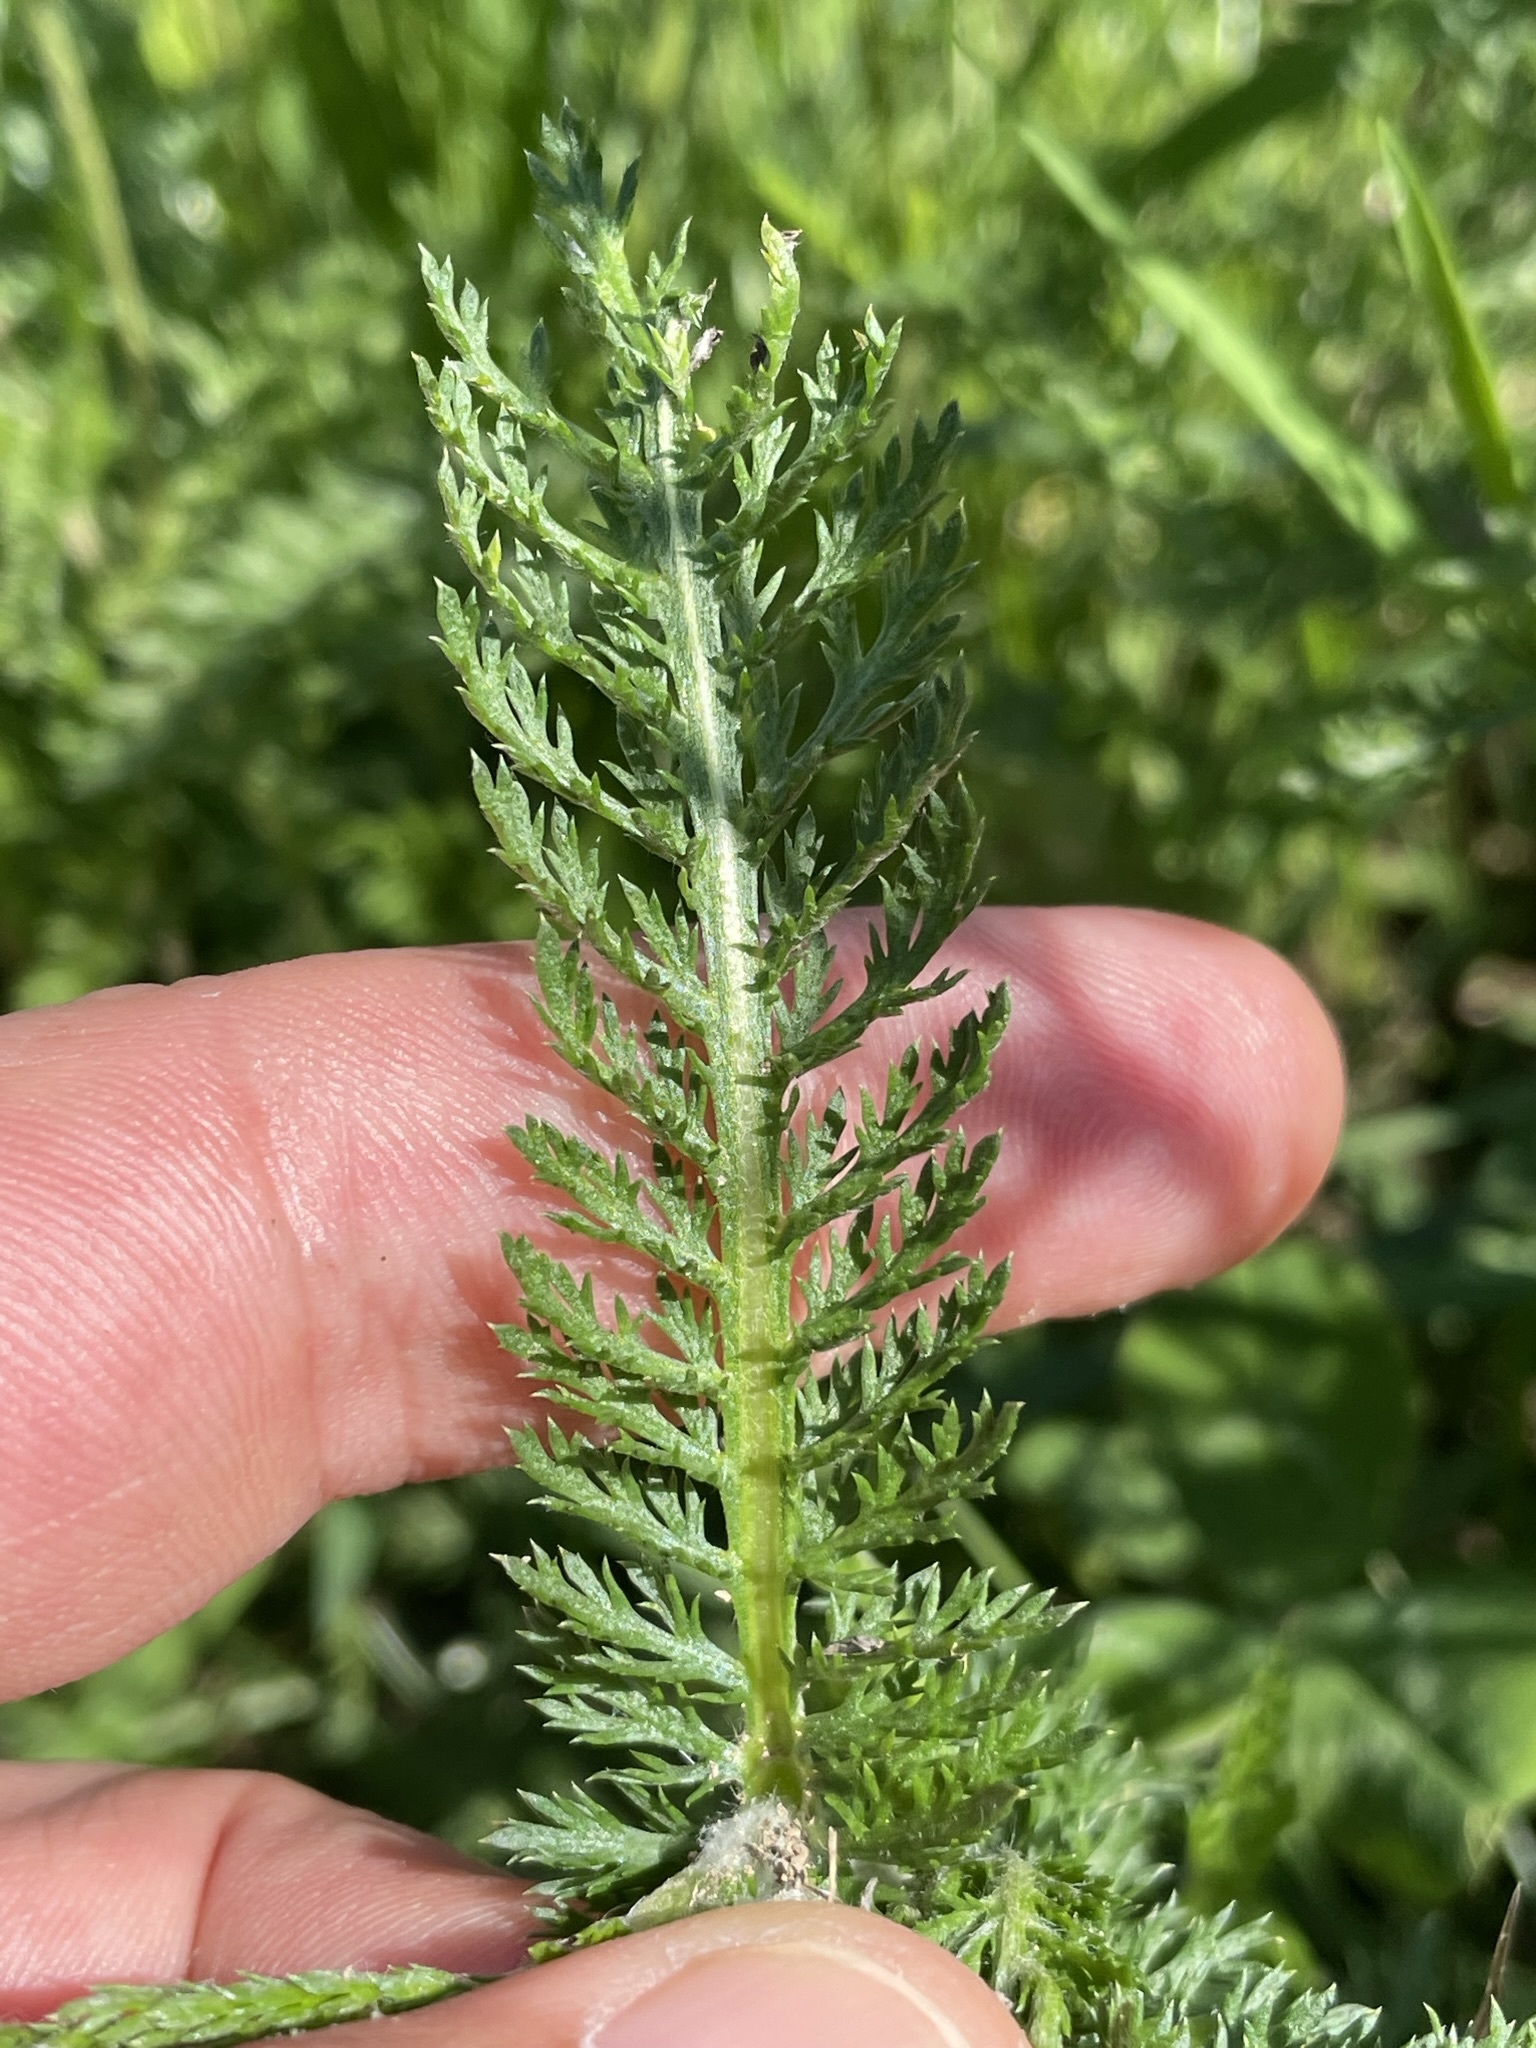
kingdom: Plantae
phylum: Tracheophyta
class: Magnoliopsida
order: Asterales
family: Asteraceae
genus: Achillea
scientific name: Achillea millefolium
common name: Yarrow
